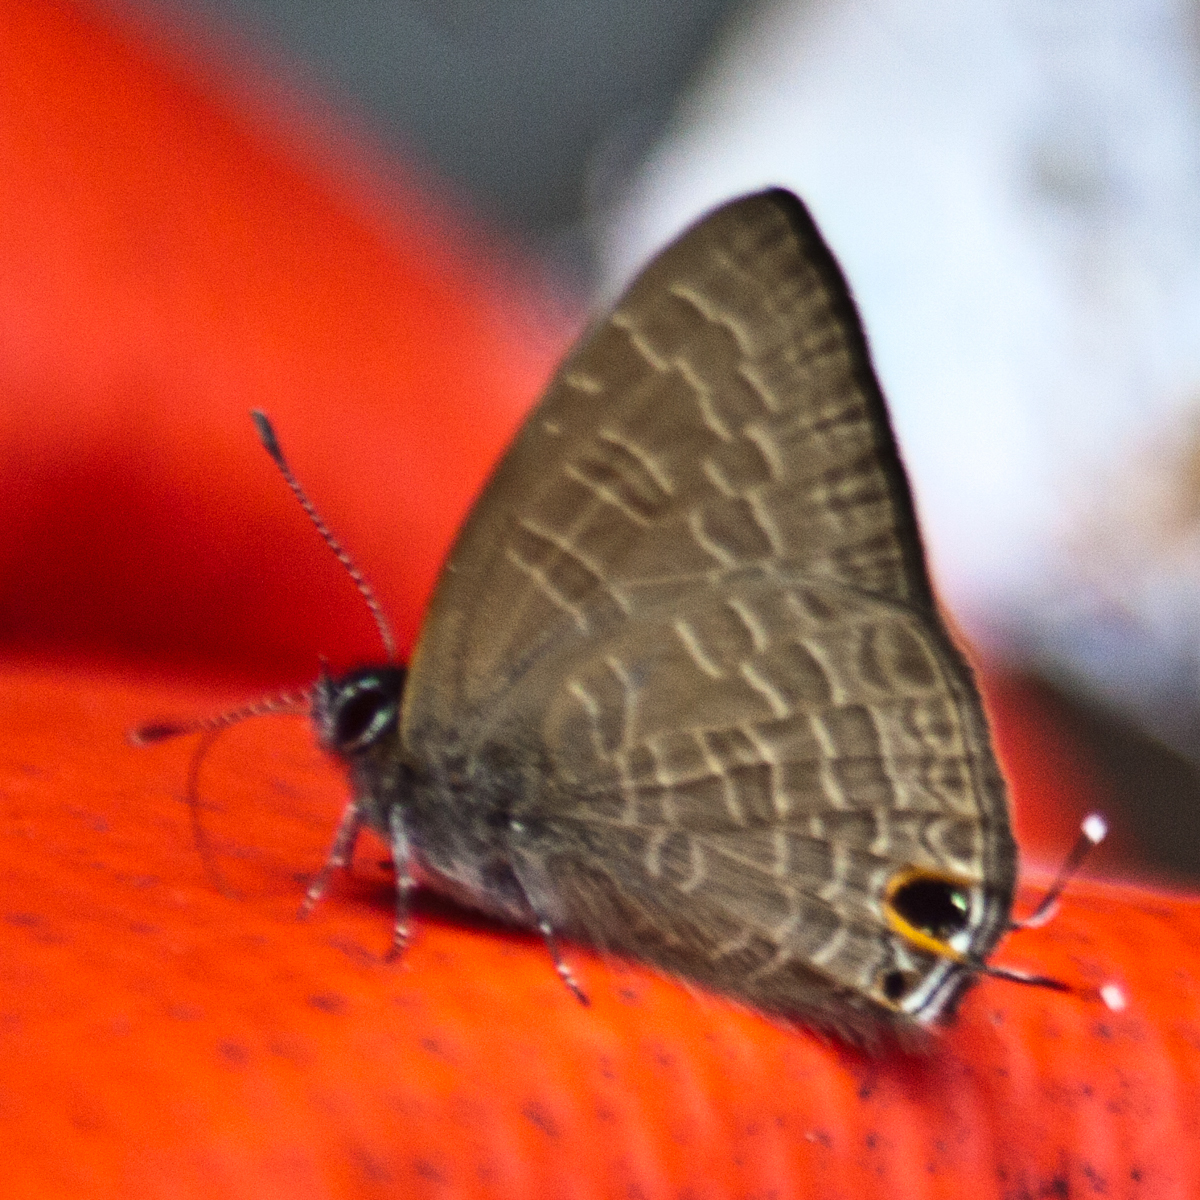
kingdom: Animalia
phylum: Arthropoda
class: Insecta
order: Lepidoptera
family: Lycaenidae
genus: Ionolyce
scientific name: Ionolyce helicon
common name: Pointed line blue
